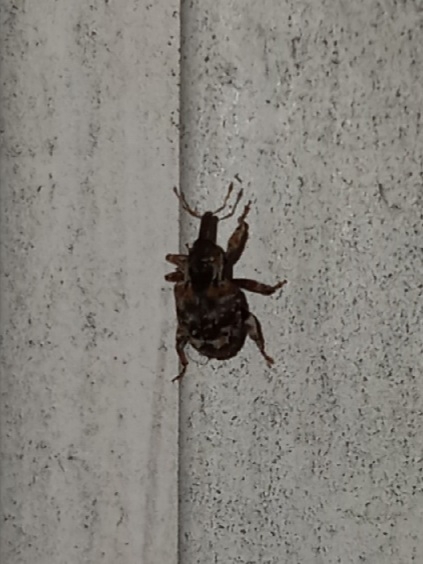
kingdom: Animalia
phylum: Arthropoda
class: Insecta
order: Coleoptera
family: Curculionidae
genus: Conotrachelus
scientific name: Conotrachelus anaglypticus
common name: Cambium curculio
